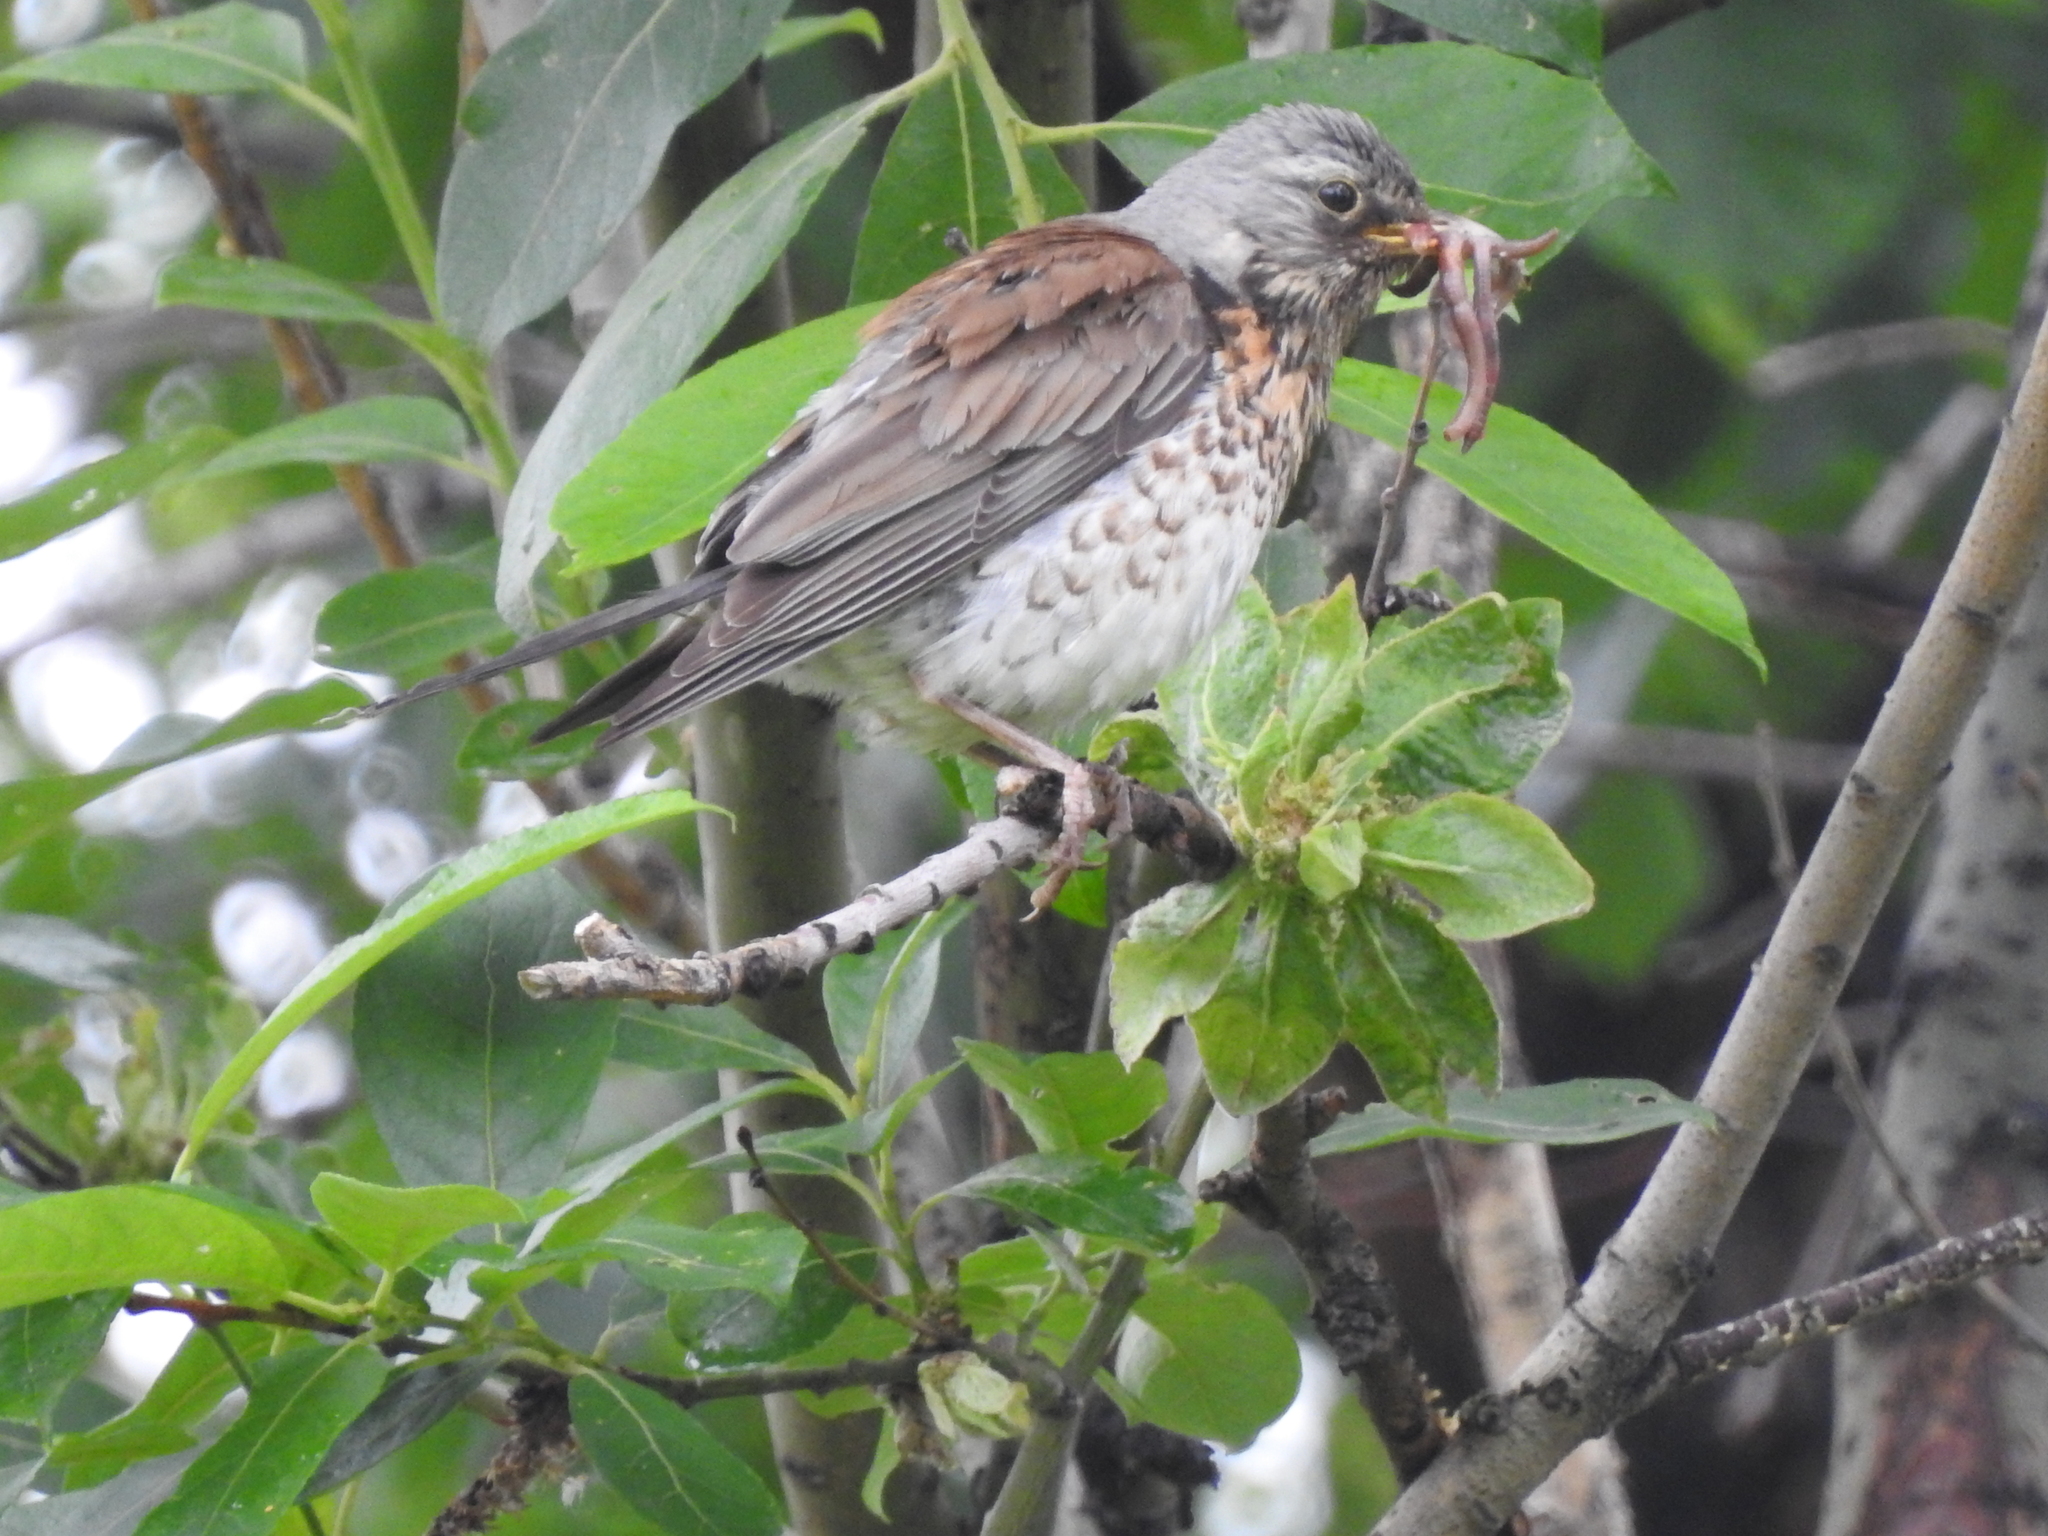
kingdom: Animalia
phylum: Chordata
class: Aves
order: Passeriformes
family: Turdidae
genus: Turdus
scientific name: Turdus pilaris
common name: Fieldfare
